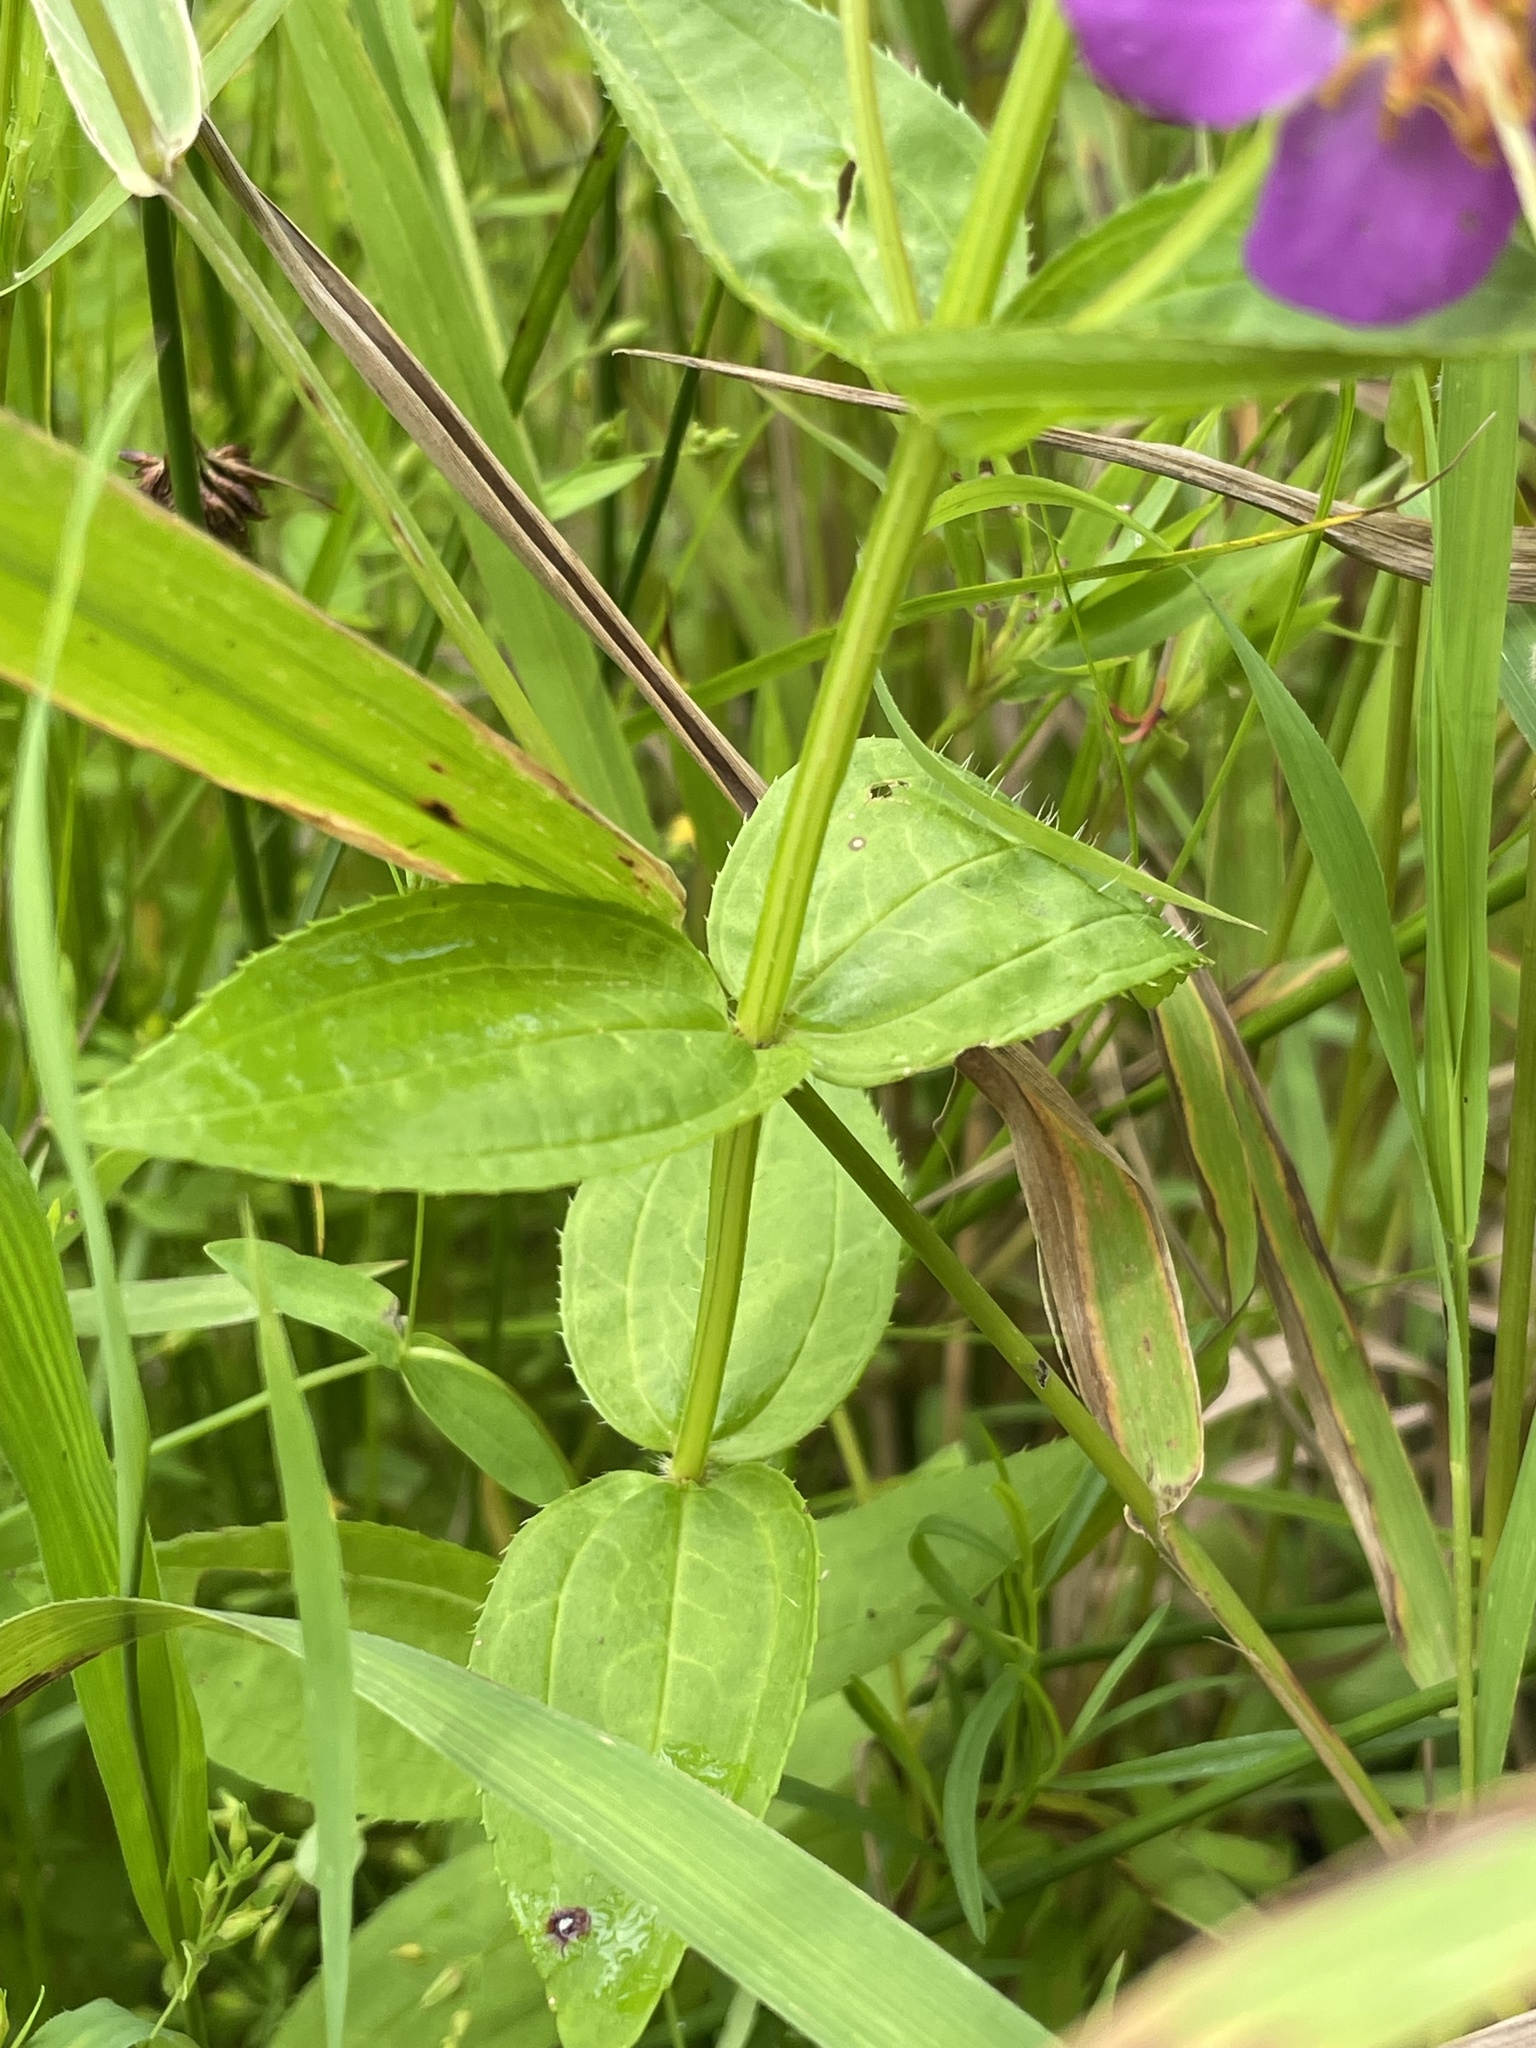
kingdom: Plantae
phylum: Tracheophyta
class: Magnoliopsida
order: Myrtales
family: Melastomataceae
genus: Rhexia
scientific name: Rhexia virginica
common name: Common meadow beauty
